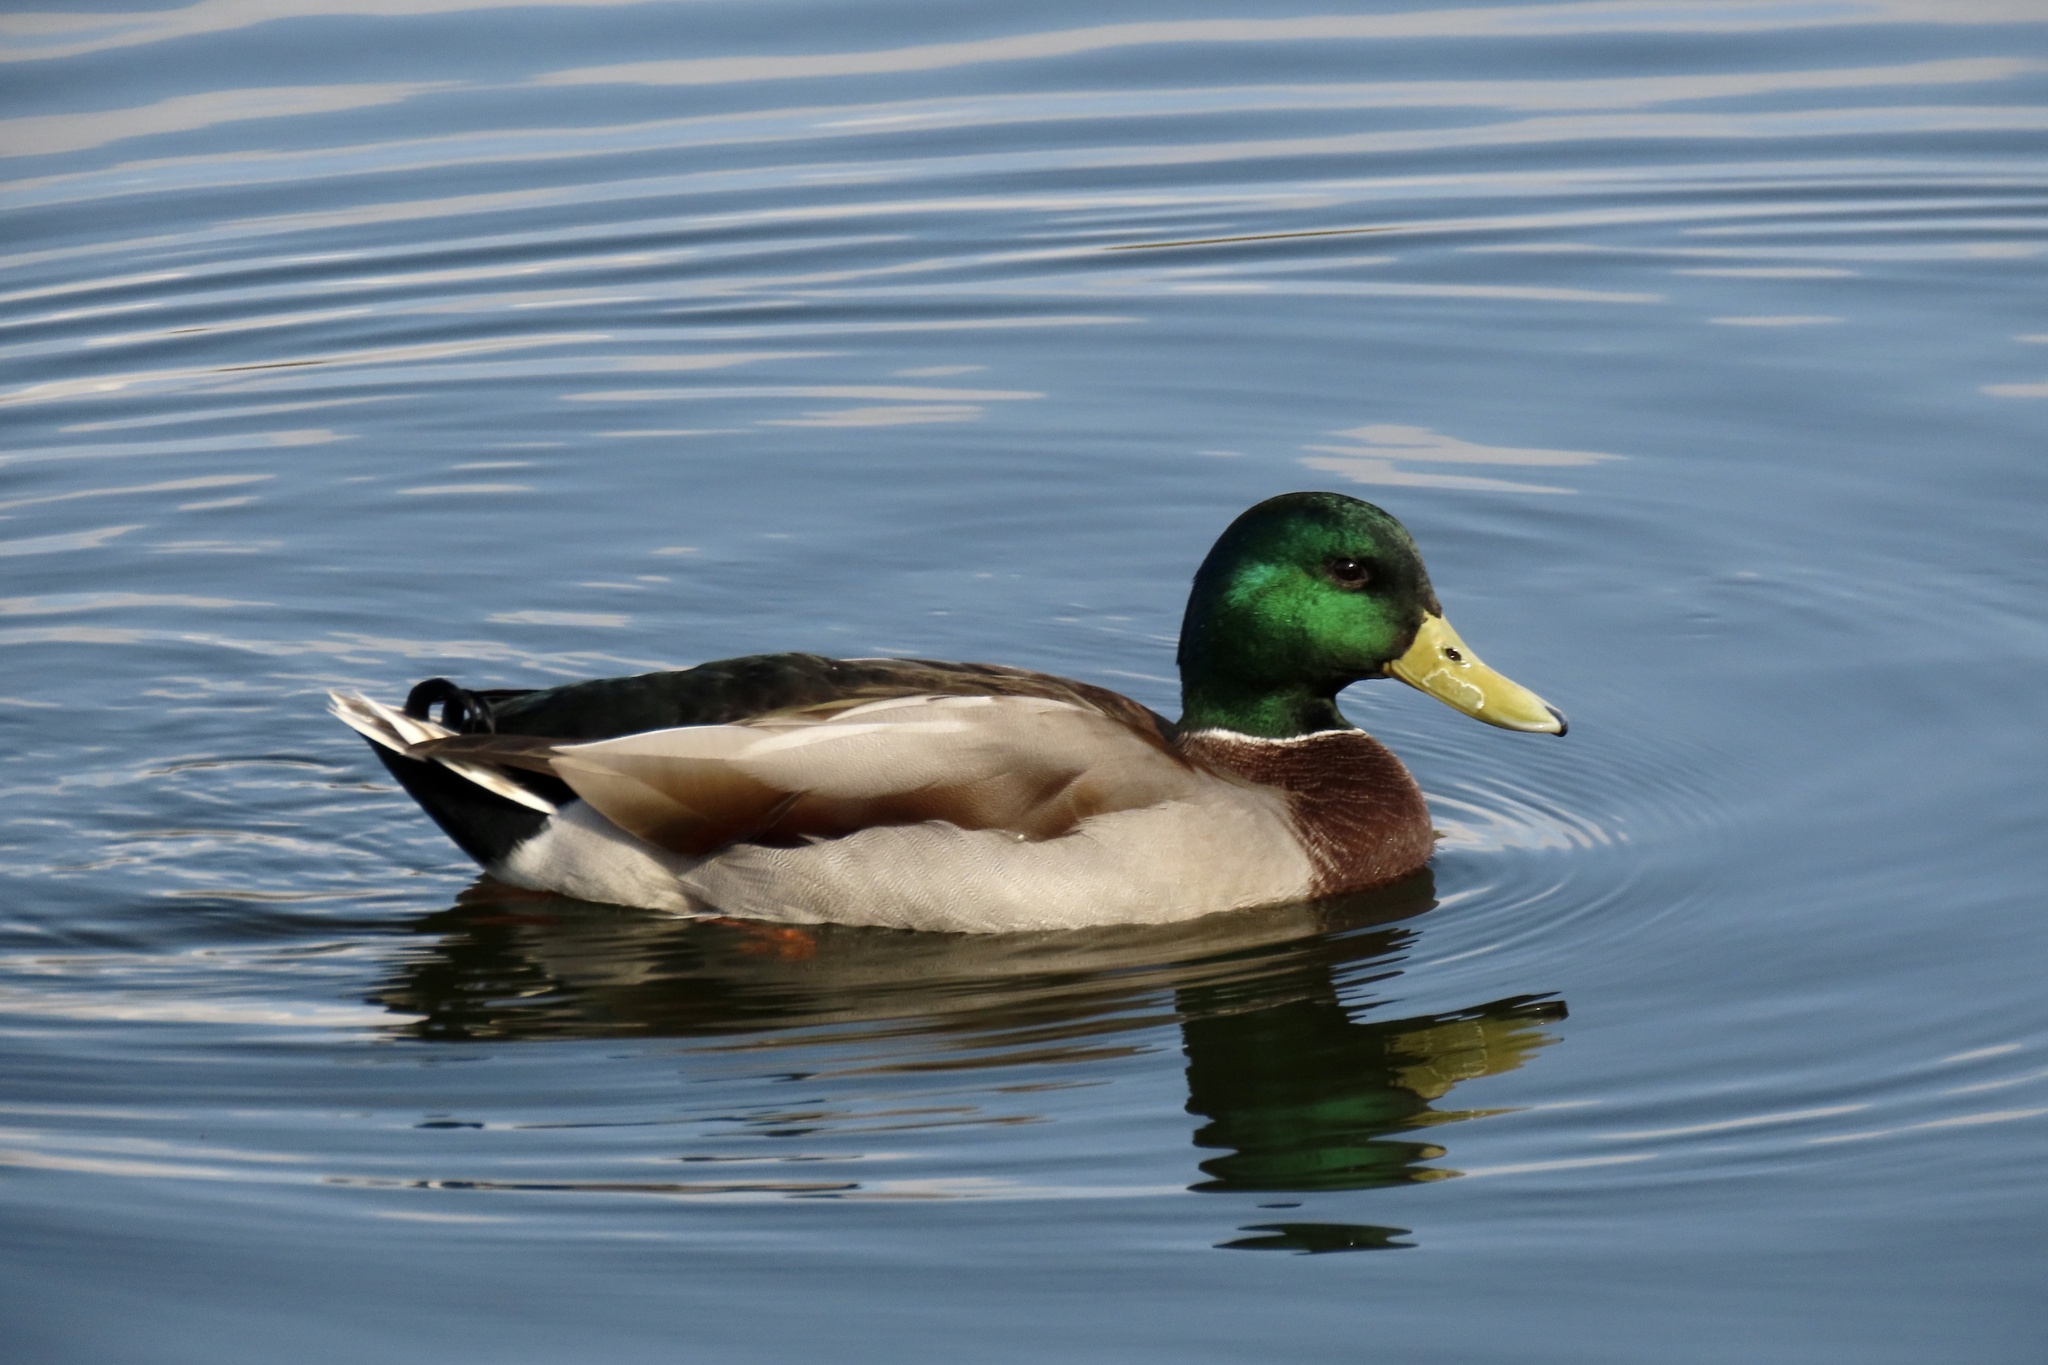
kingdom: Animalia
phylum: Chordata
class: Aves
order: Anseriformes
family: Anatidae
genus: Anas
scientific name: Anas platyrhynchos
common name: Mallard
